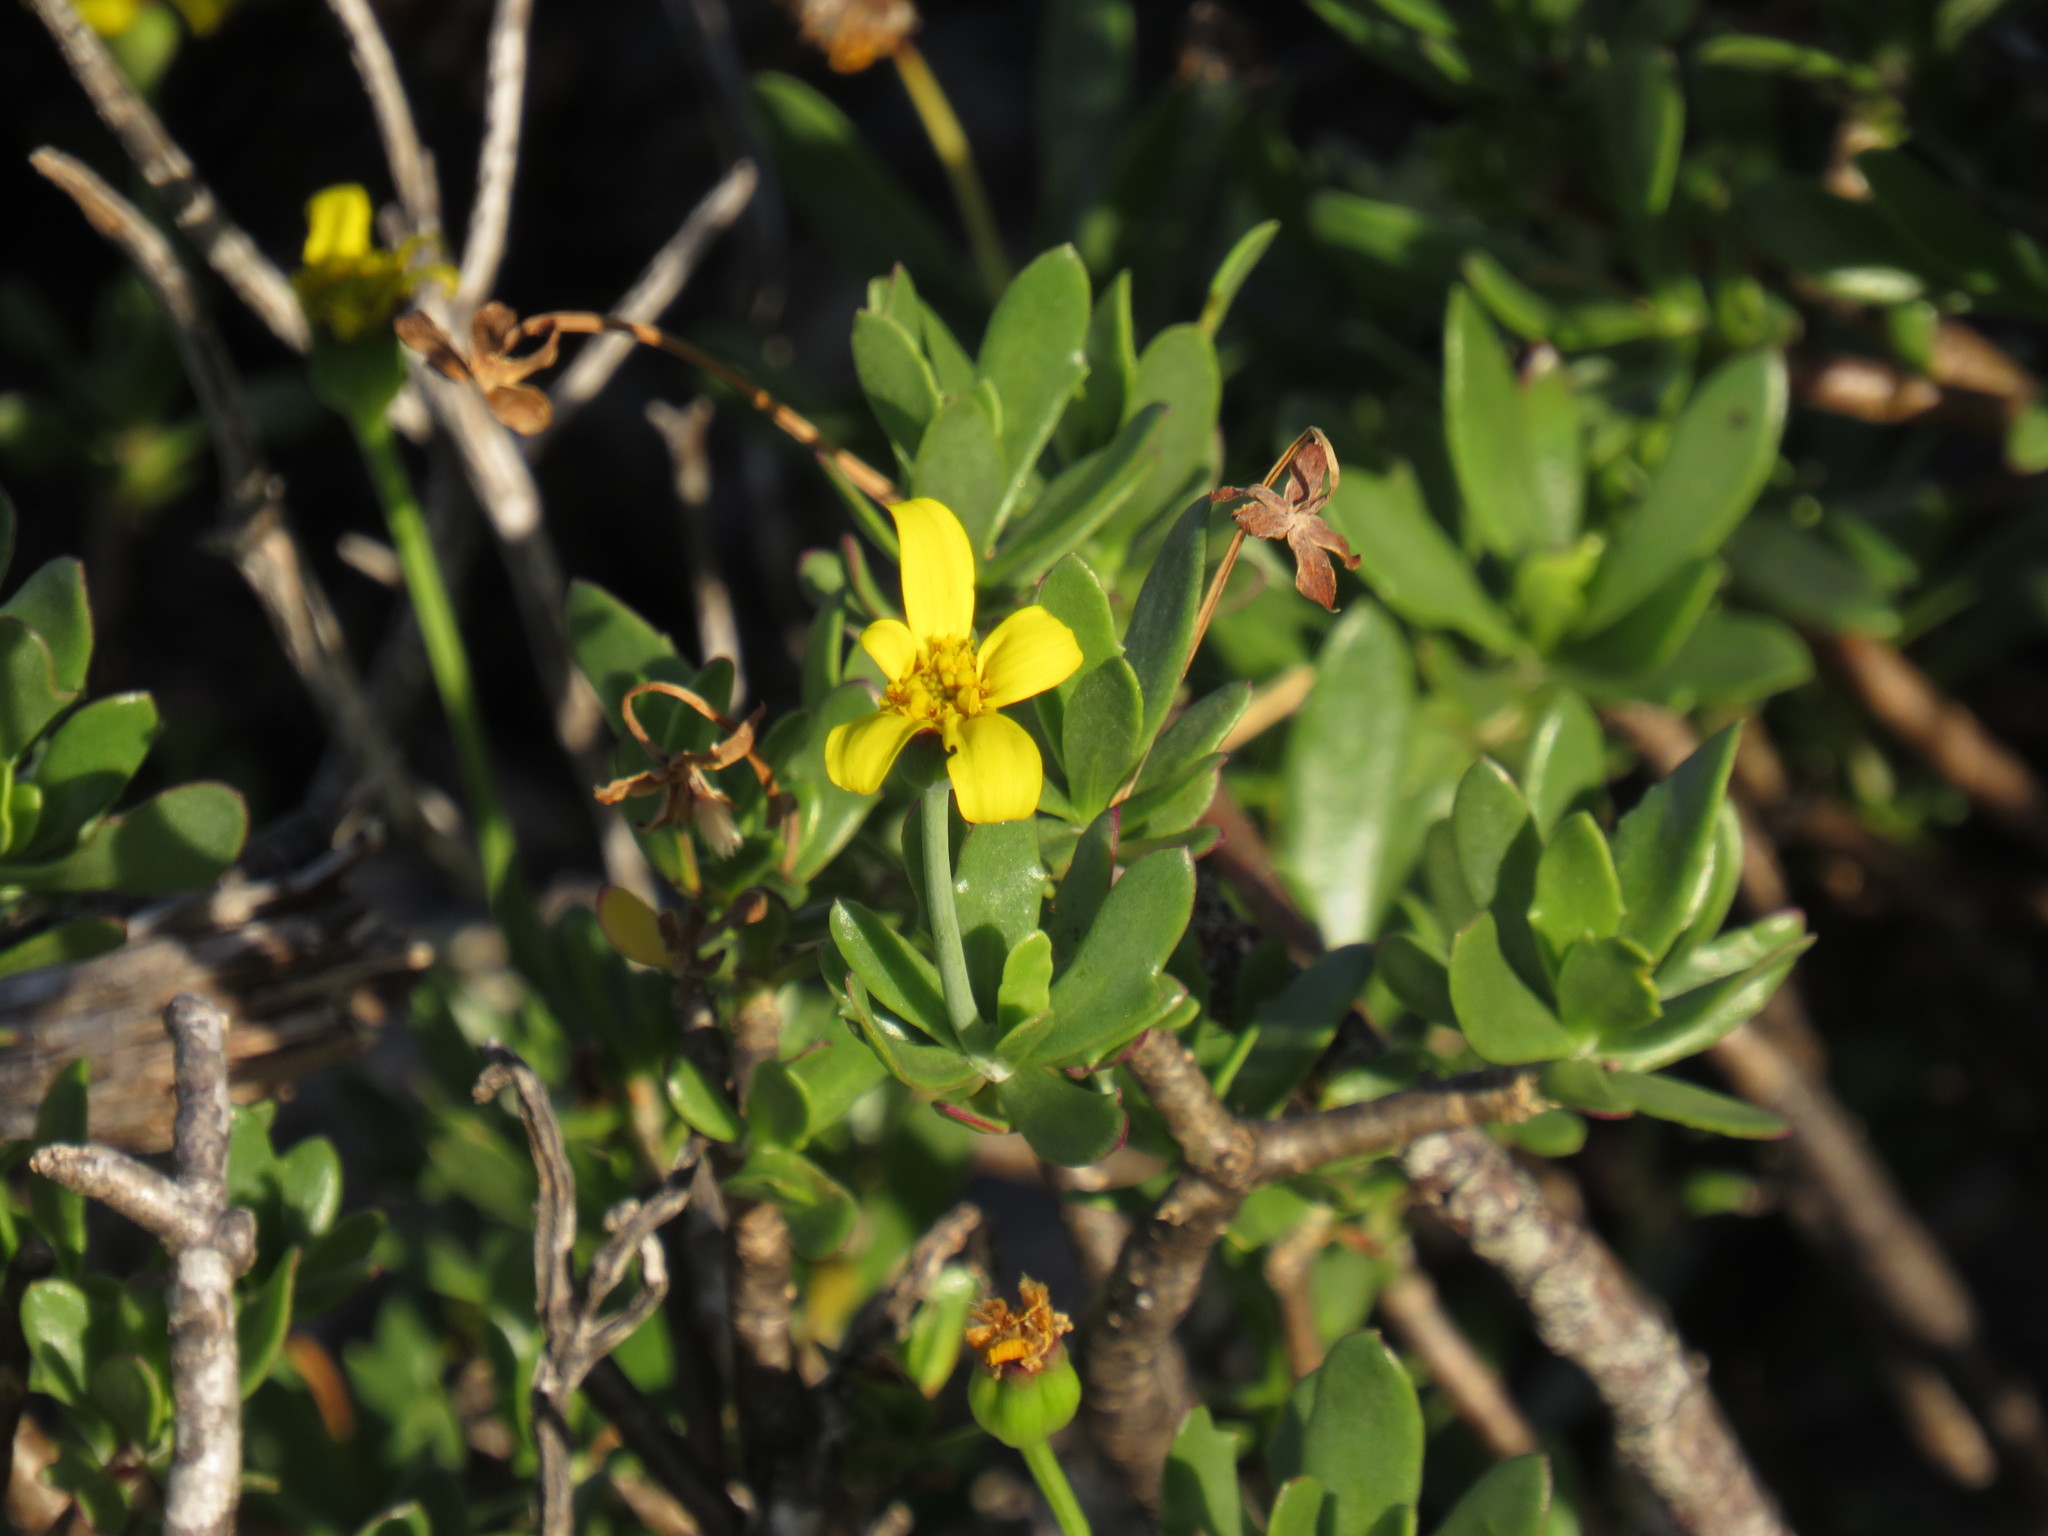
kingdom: Plantae
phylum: Tracheophyta
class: Magnoliopsida
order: Asterales
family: Asteraceae
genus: Othonna
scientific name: Othonna arborescens
